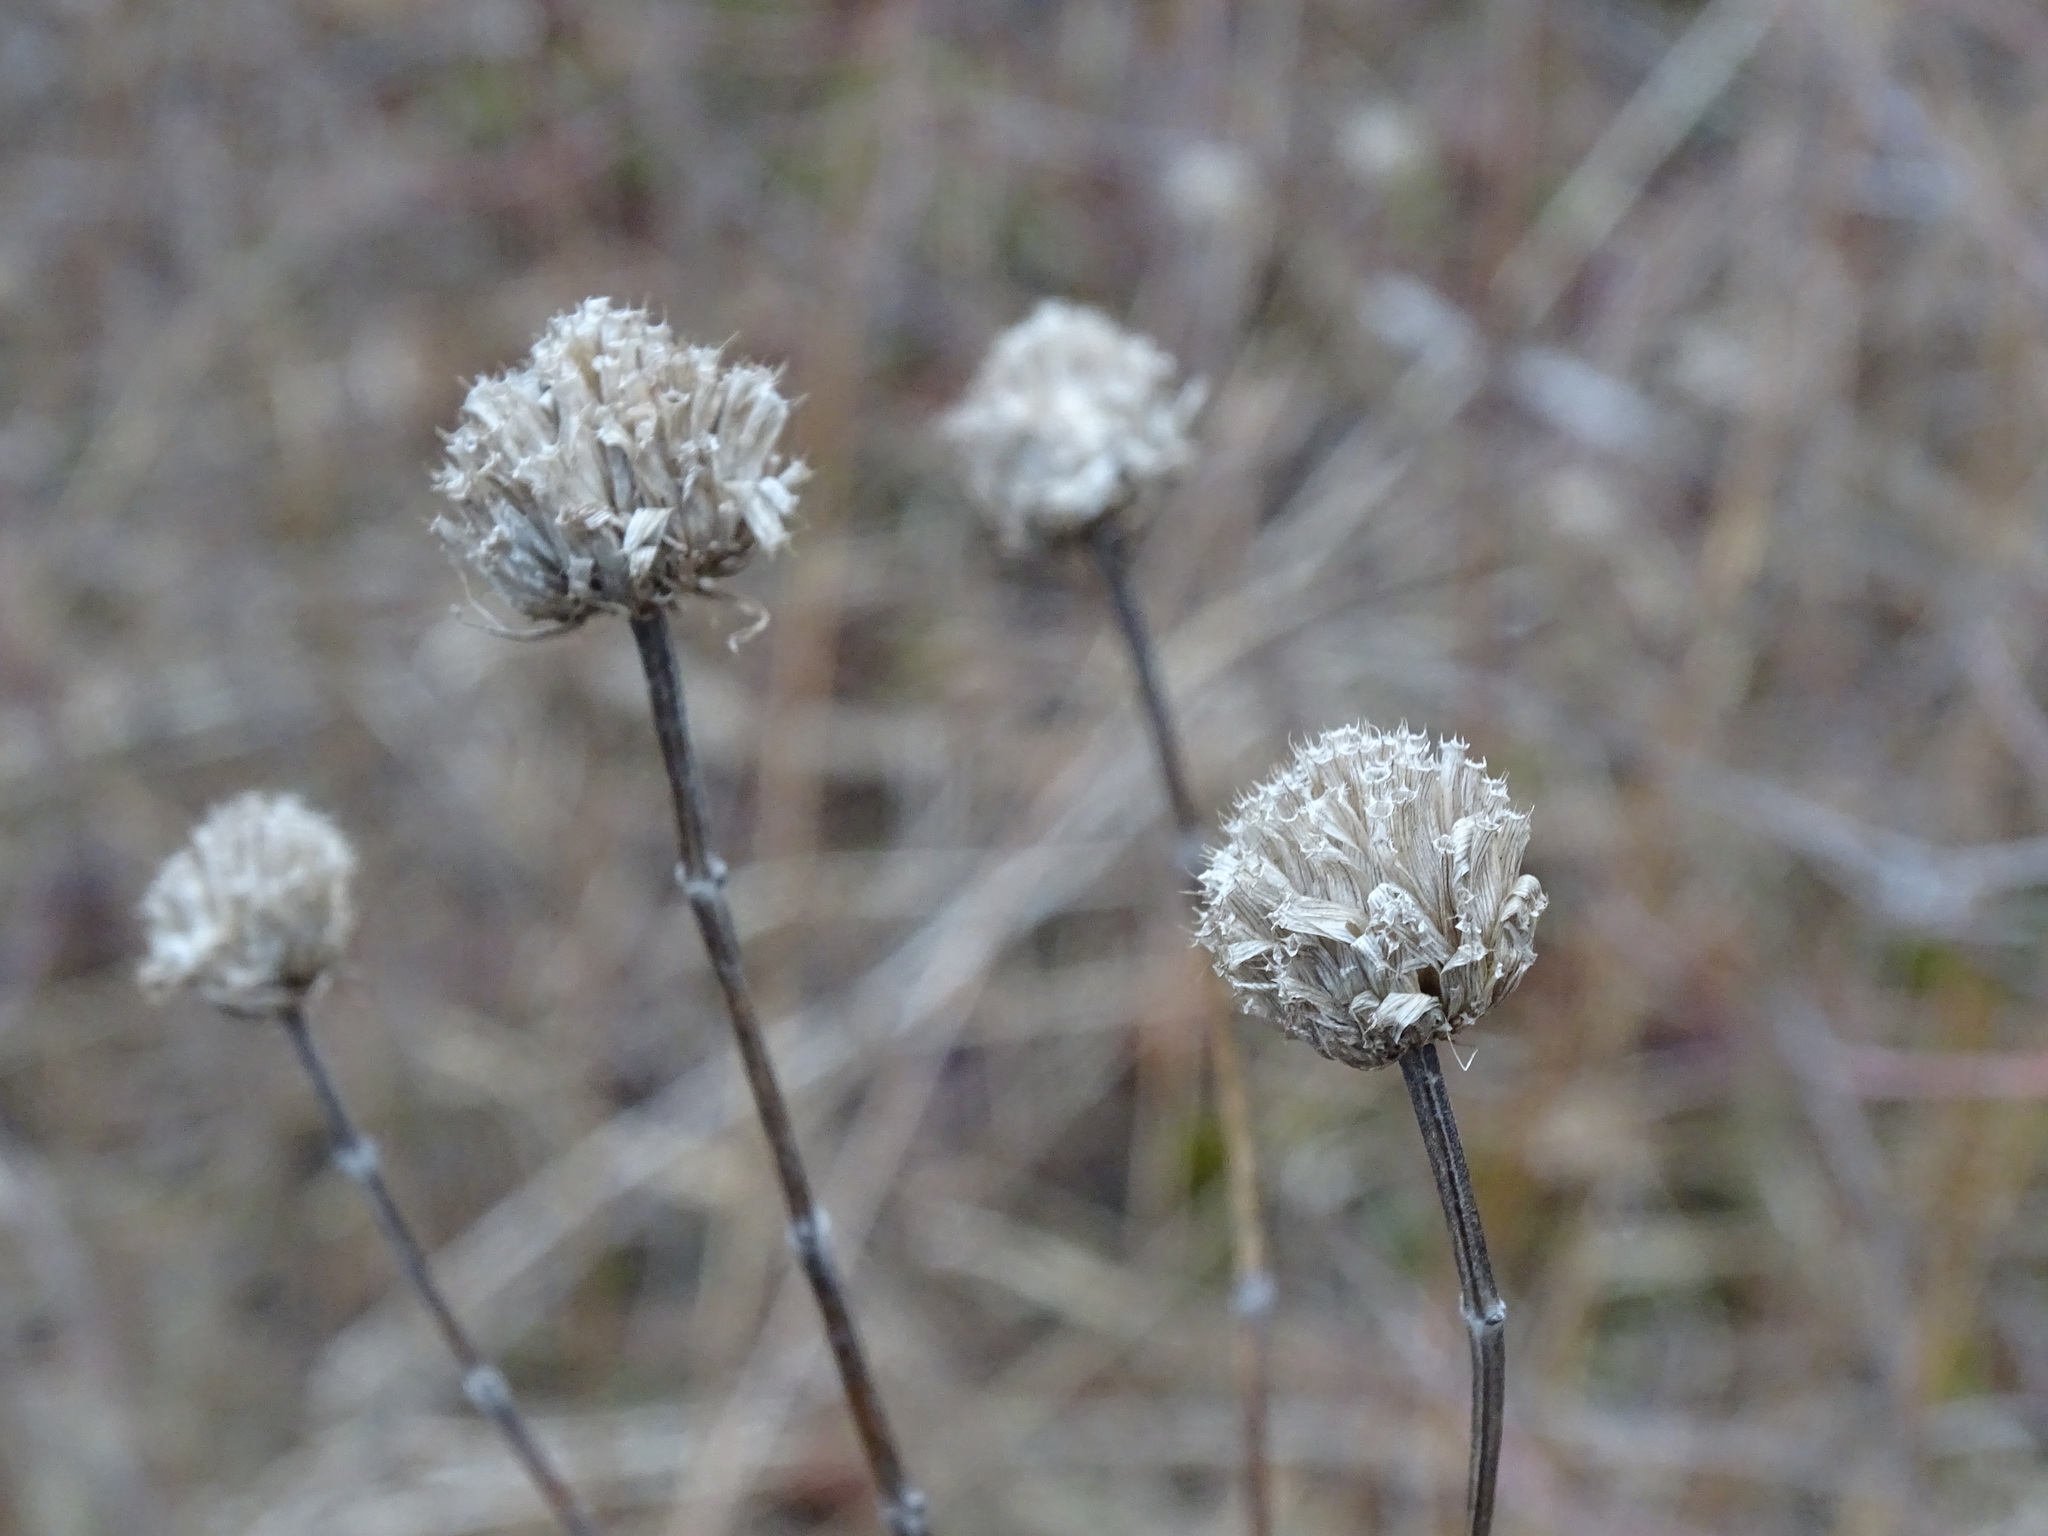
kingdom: Plantae
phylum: Tracheophyta
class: Magnoliopsida
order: Lamiales
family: Lamiaceae
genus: Monarda
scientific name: Monarda fistulosa
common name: Purple beebalm
